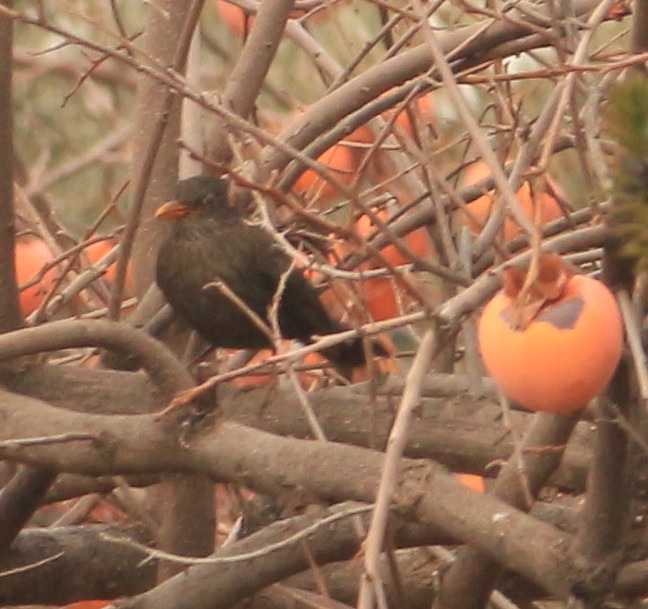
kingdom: Animalia
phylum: Chordata
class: Aves
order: Passeriformes
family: Turdidae
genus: Turdus
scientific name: Turdus merula
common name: Common blackbird
